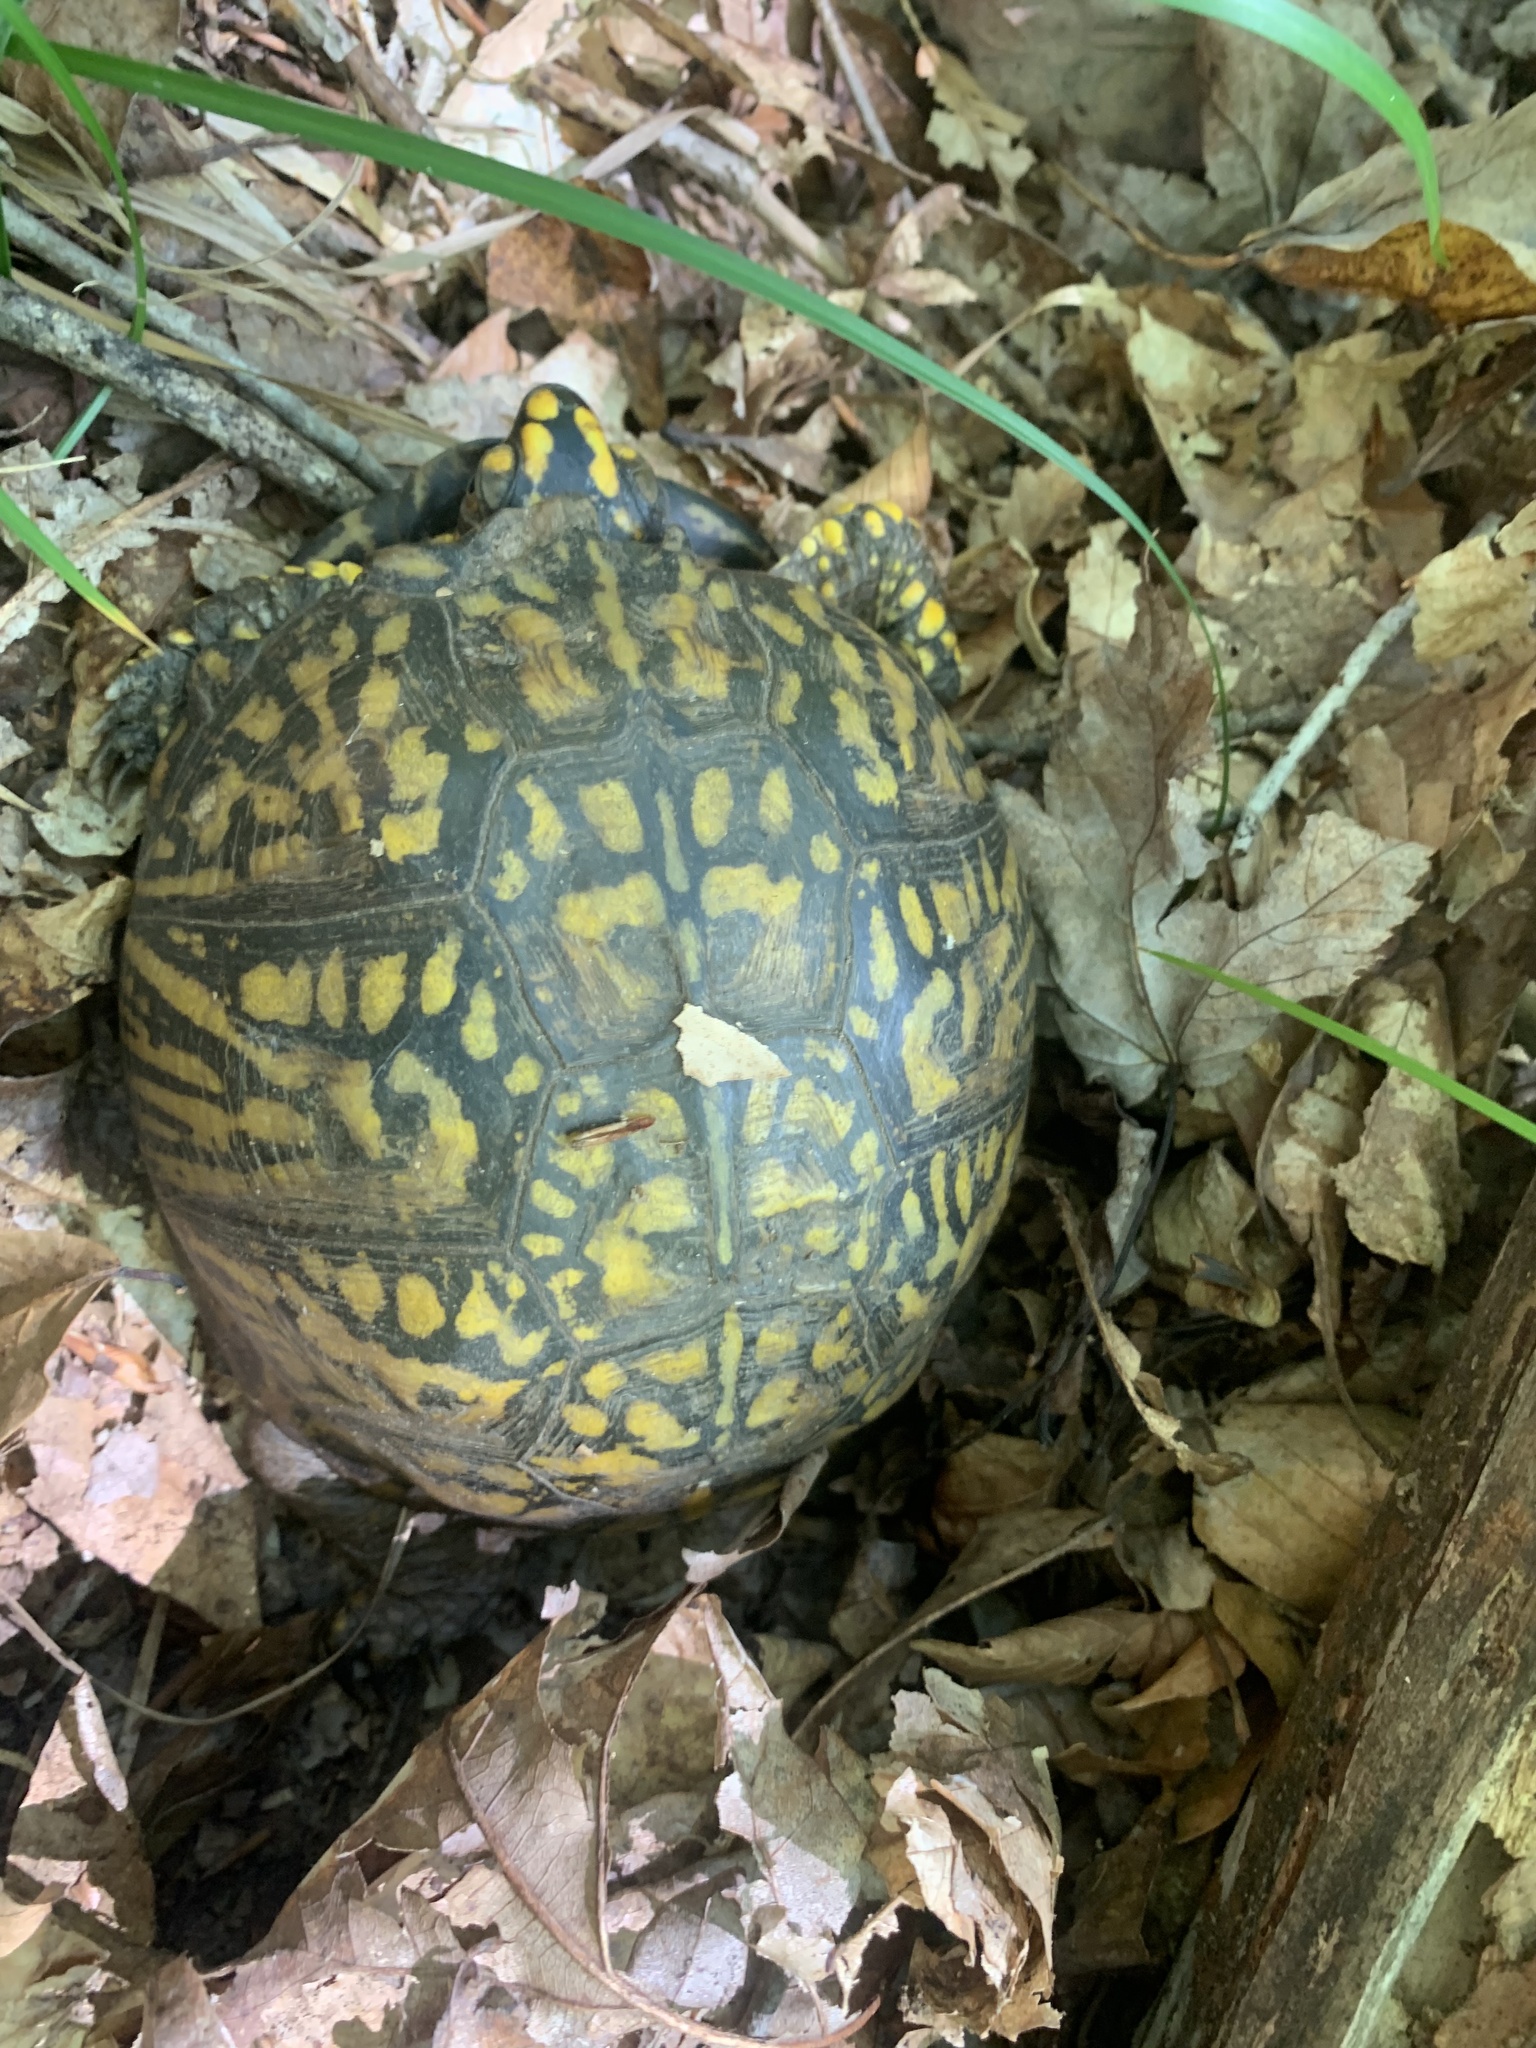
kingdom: Animalia
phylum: Chordata
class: Testudines
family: Emydidae
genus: Terrapene
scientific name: Terrapene carolina
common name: Common box turtle
